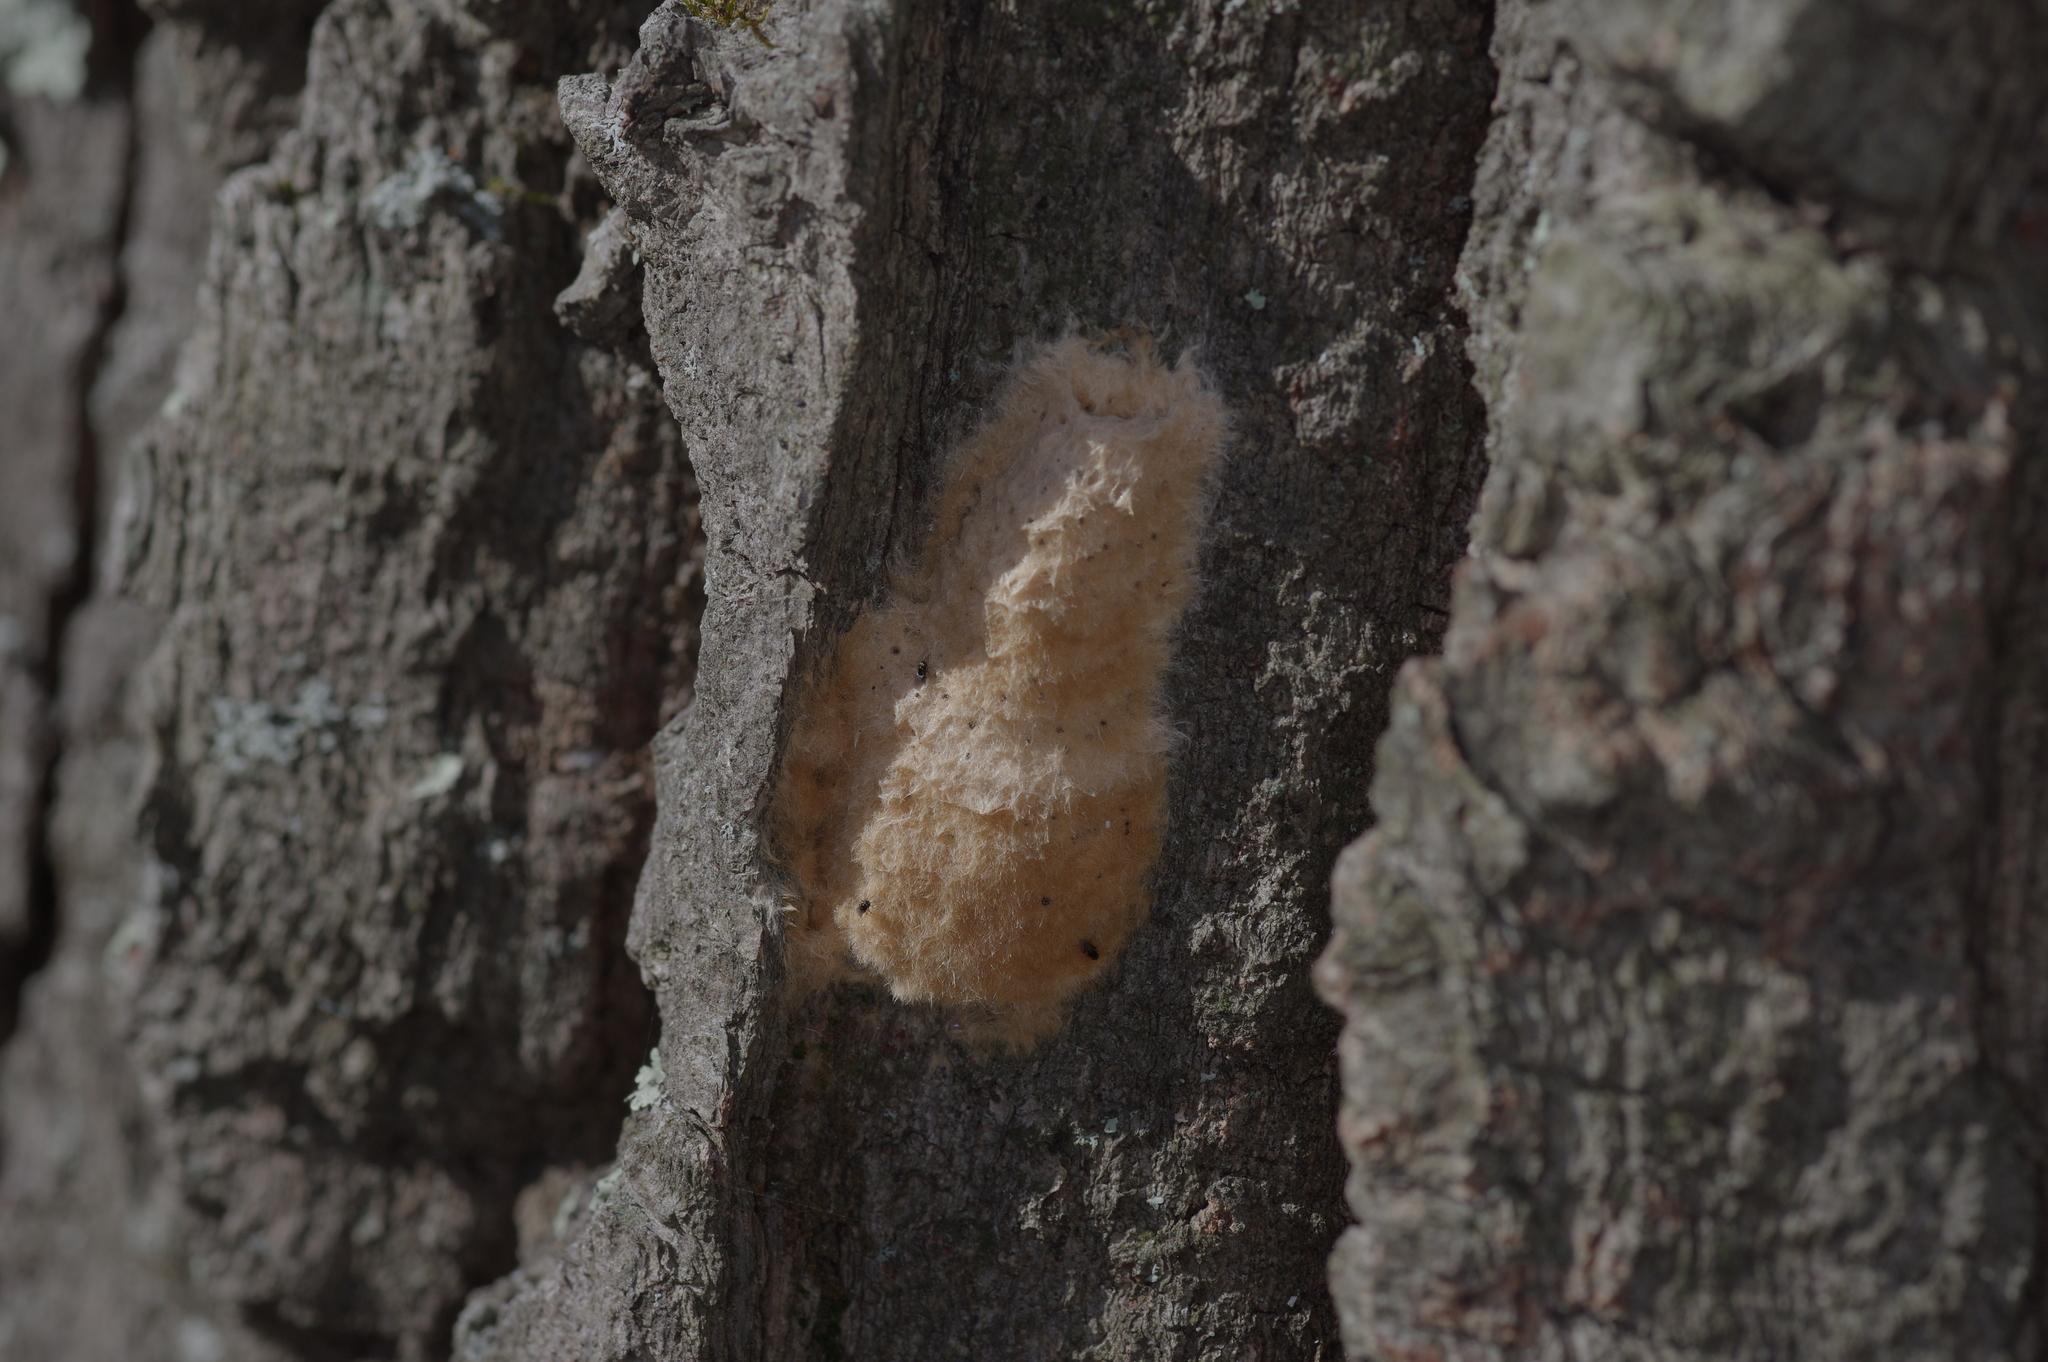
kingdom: Animalia
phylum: Arthropoda
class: Insecta
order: Lepidoptera
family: Erebidae
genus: Lymantria
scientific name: Lymantria dispar
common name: Gypsy moth
